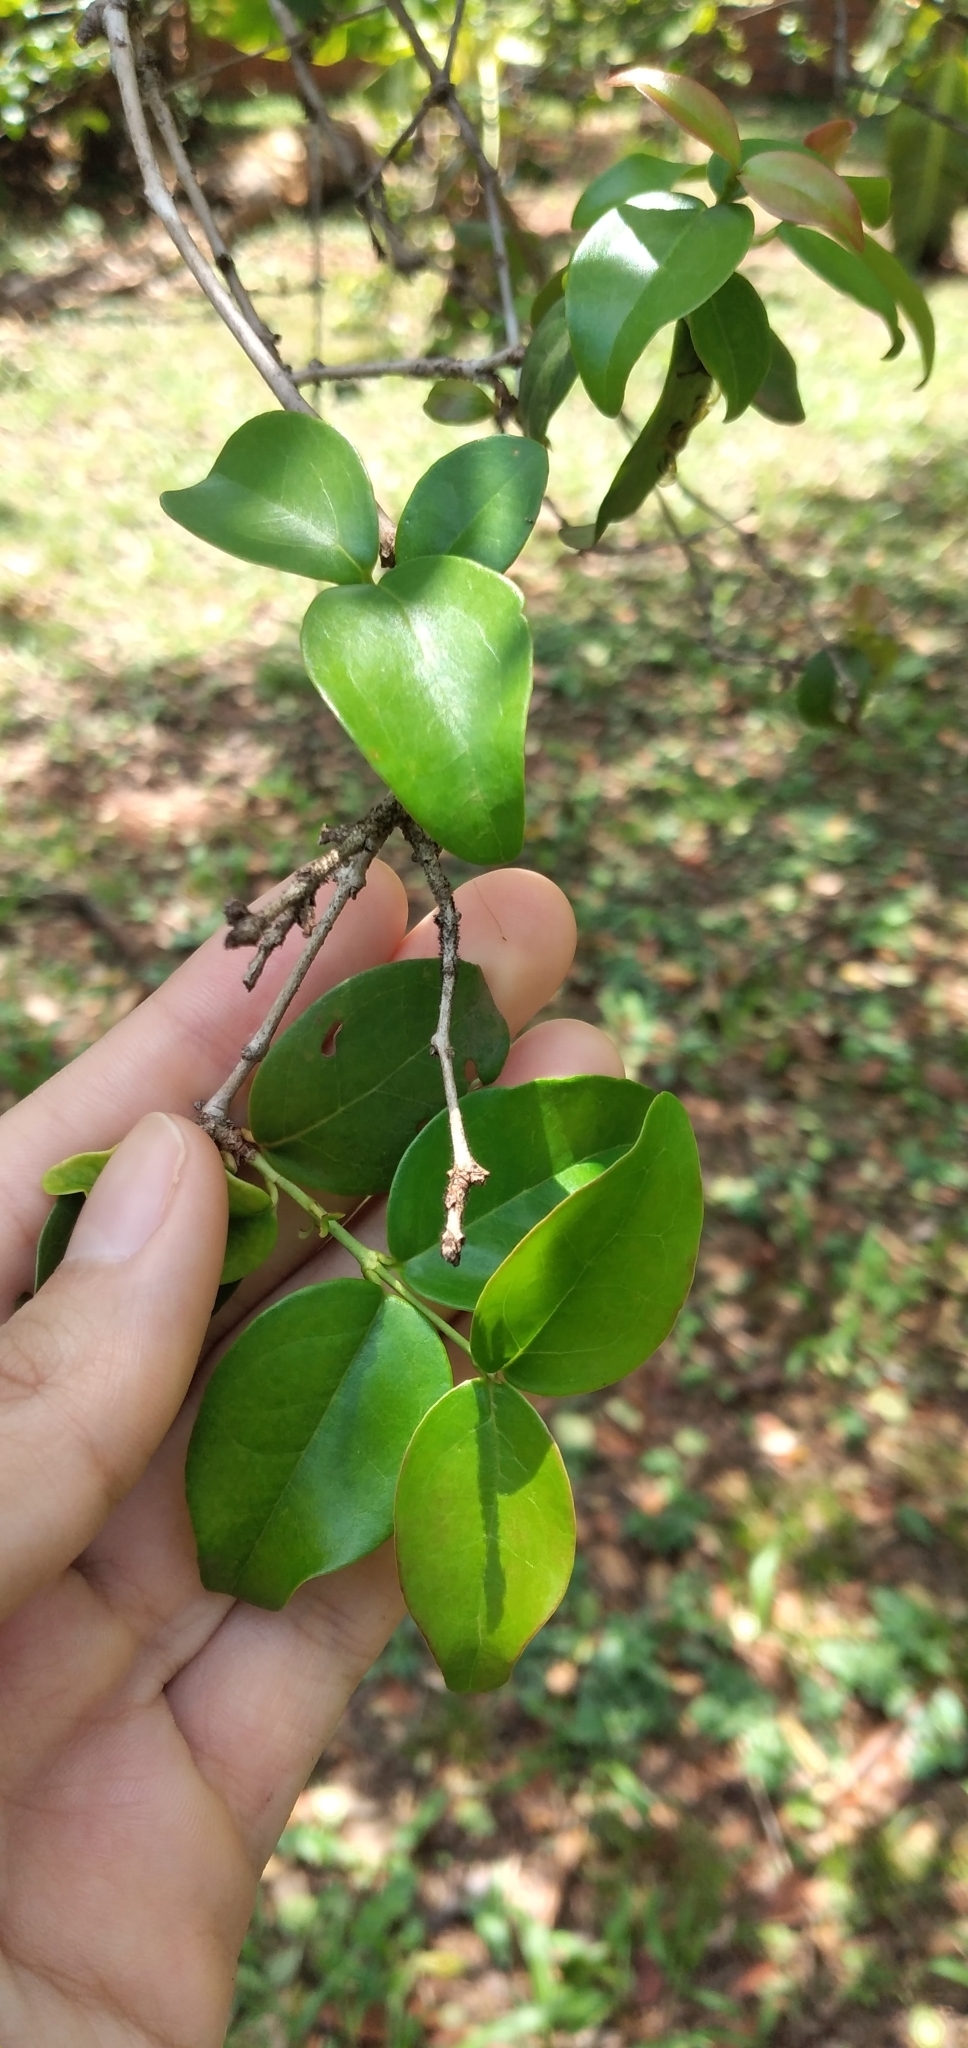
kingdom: Plantae
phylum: Tracheophyta
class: Magnoliopsida
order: Myrtales
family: Myrtaceae
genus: Eugenia
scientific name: Eugenia uniflora
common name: Surinam cherry
